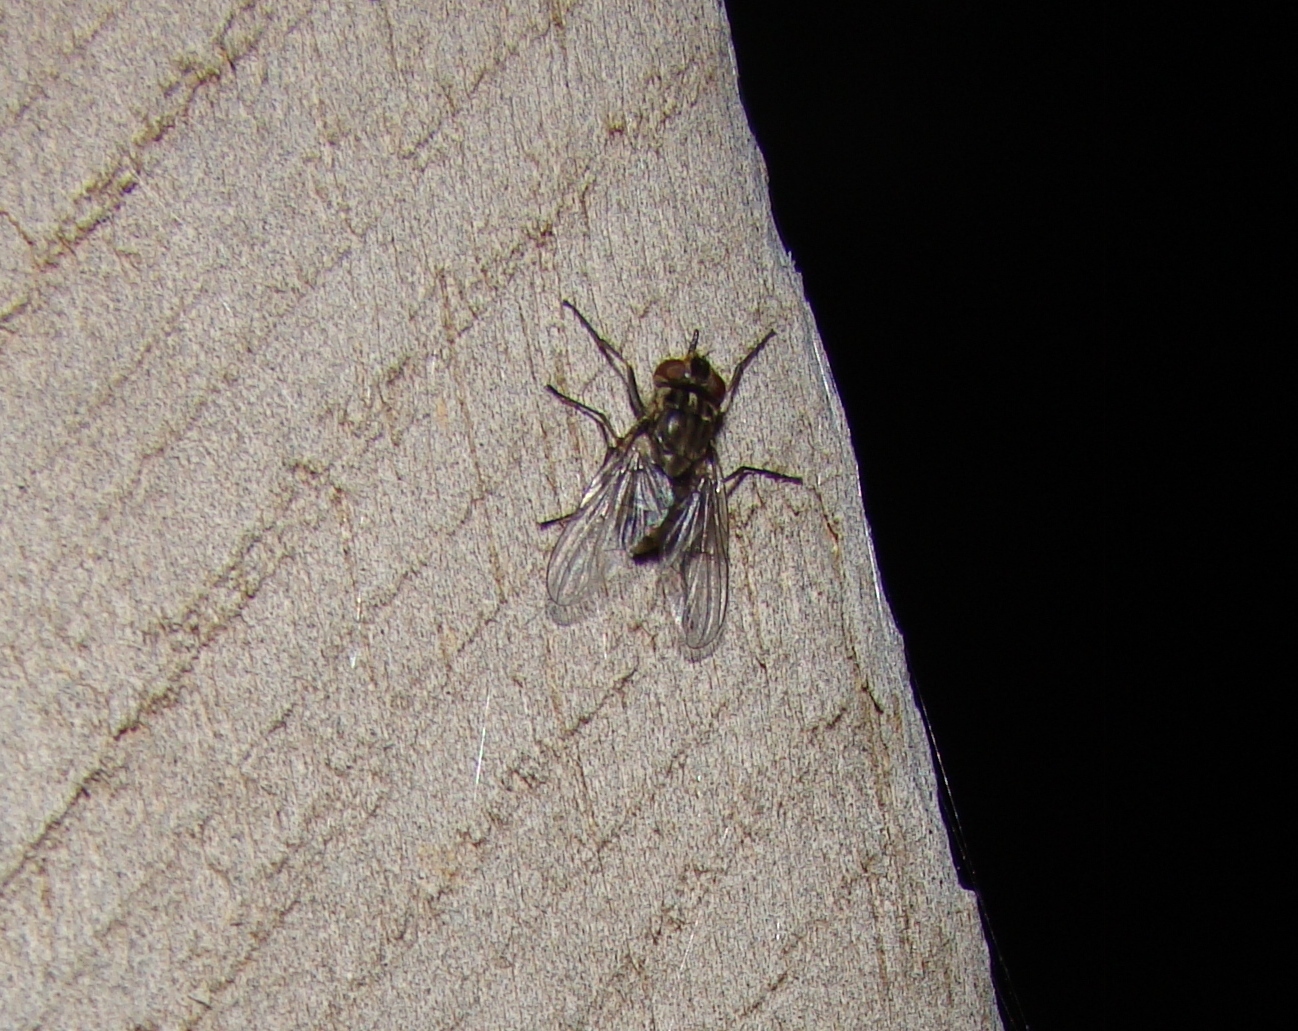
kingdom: Animalia
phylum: Arthropoda
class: Insecta
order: Diptera
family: Muscidae
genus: Stomoxys
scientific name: Stomoxys calcitrans
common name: Stable fly
